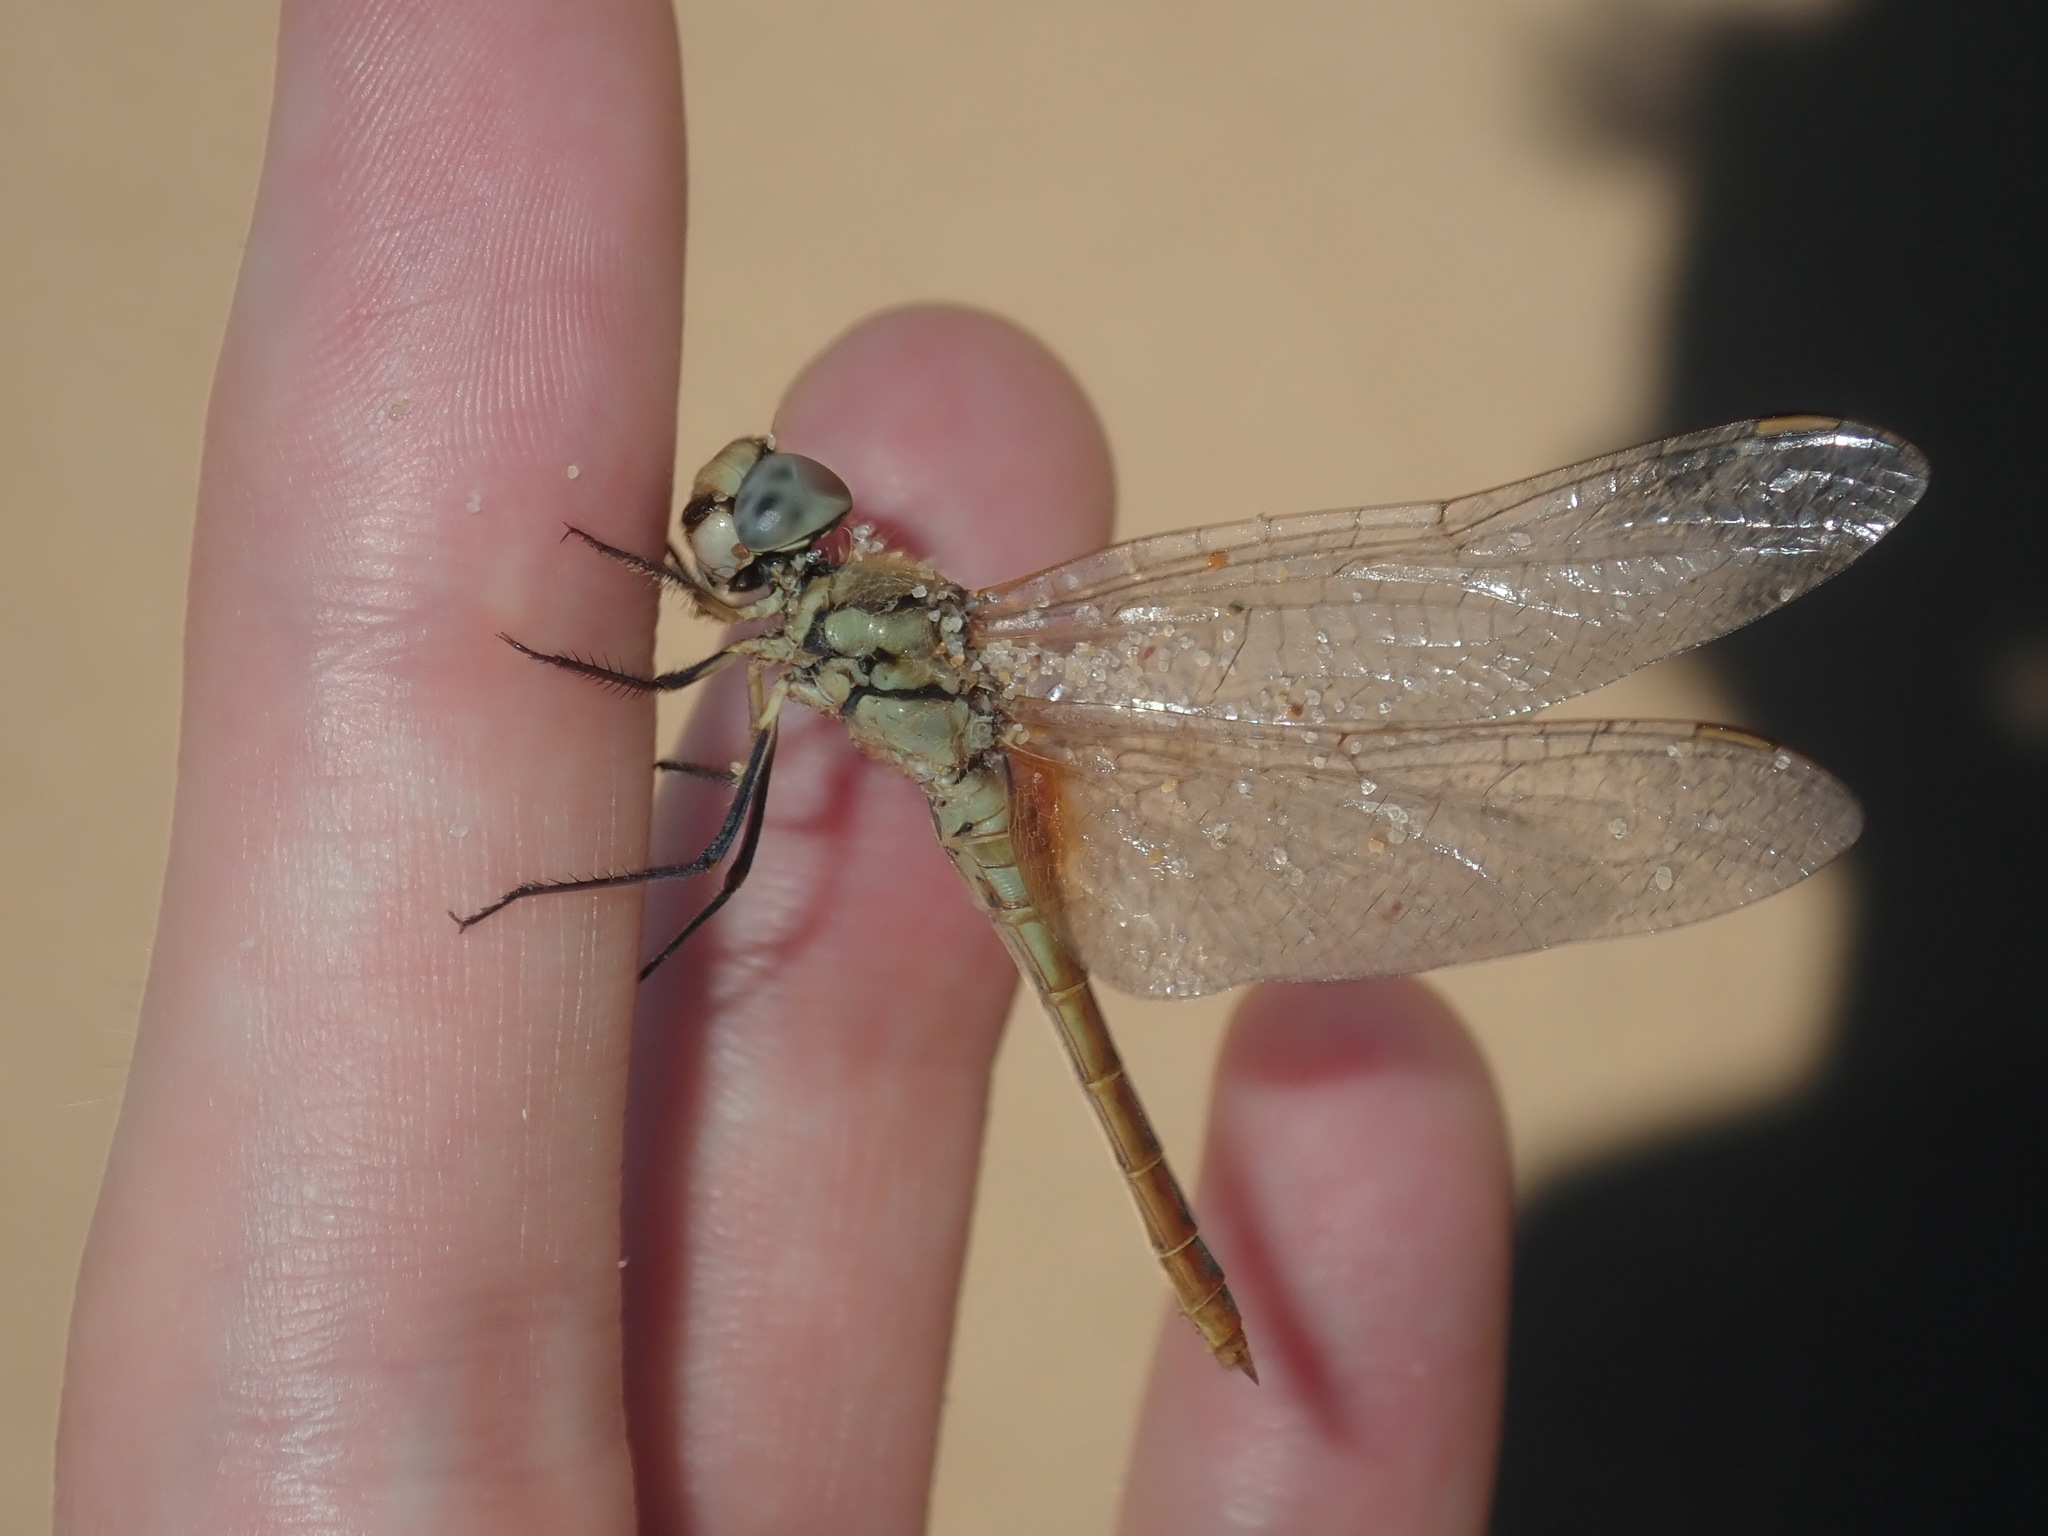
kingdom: Animalia
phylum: Arthropoda
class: Insecta
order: Odonata
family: Libellulidae
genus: Macrodiplax
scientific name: Macrodiplax cora
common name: Coastal glider
